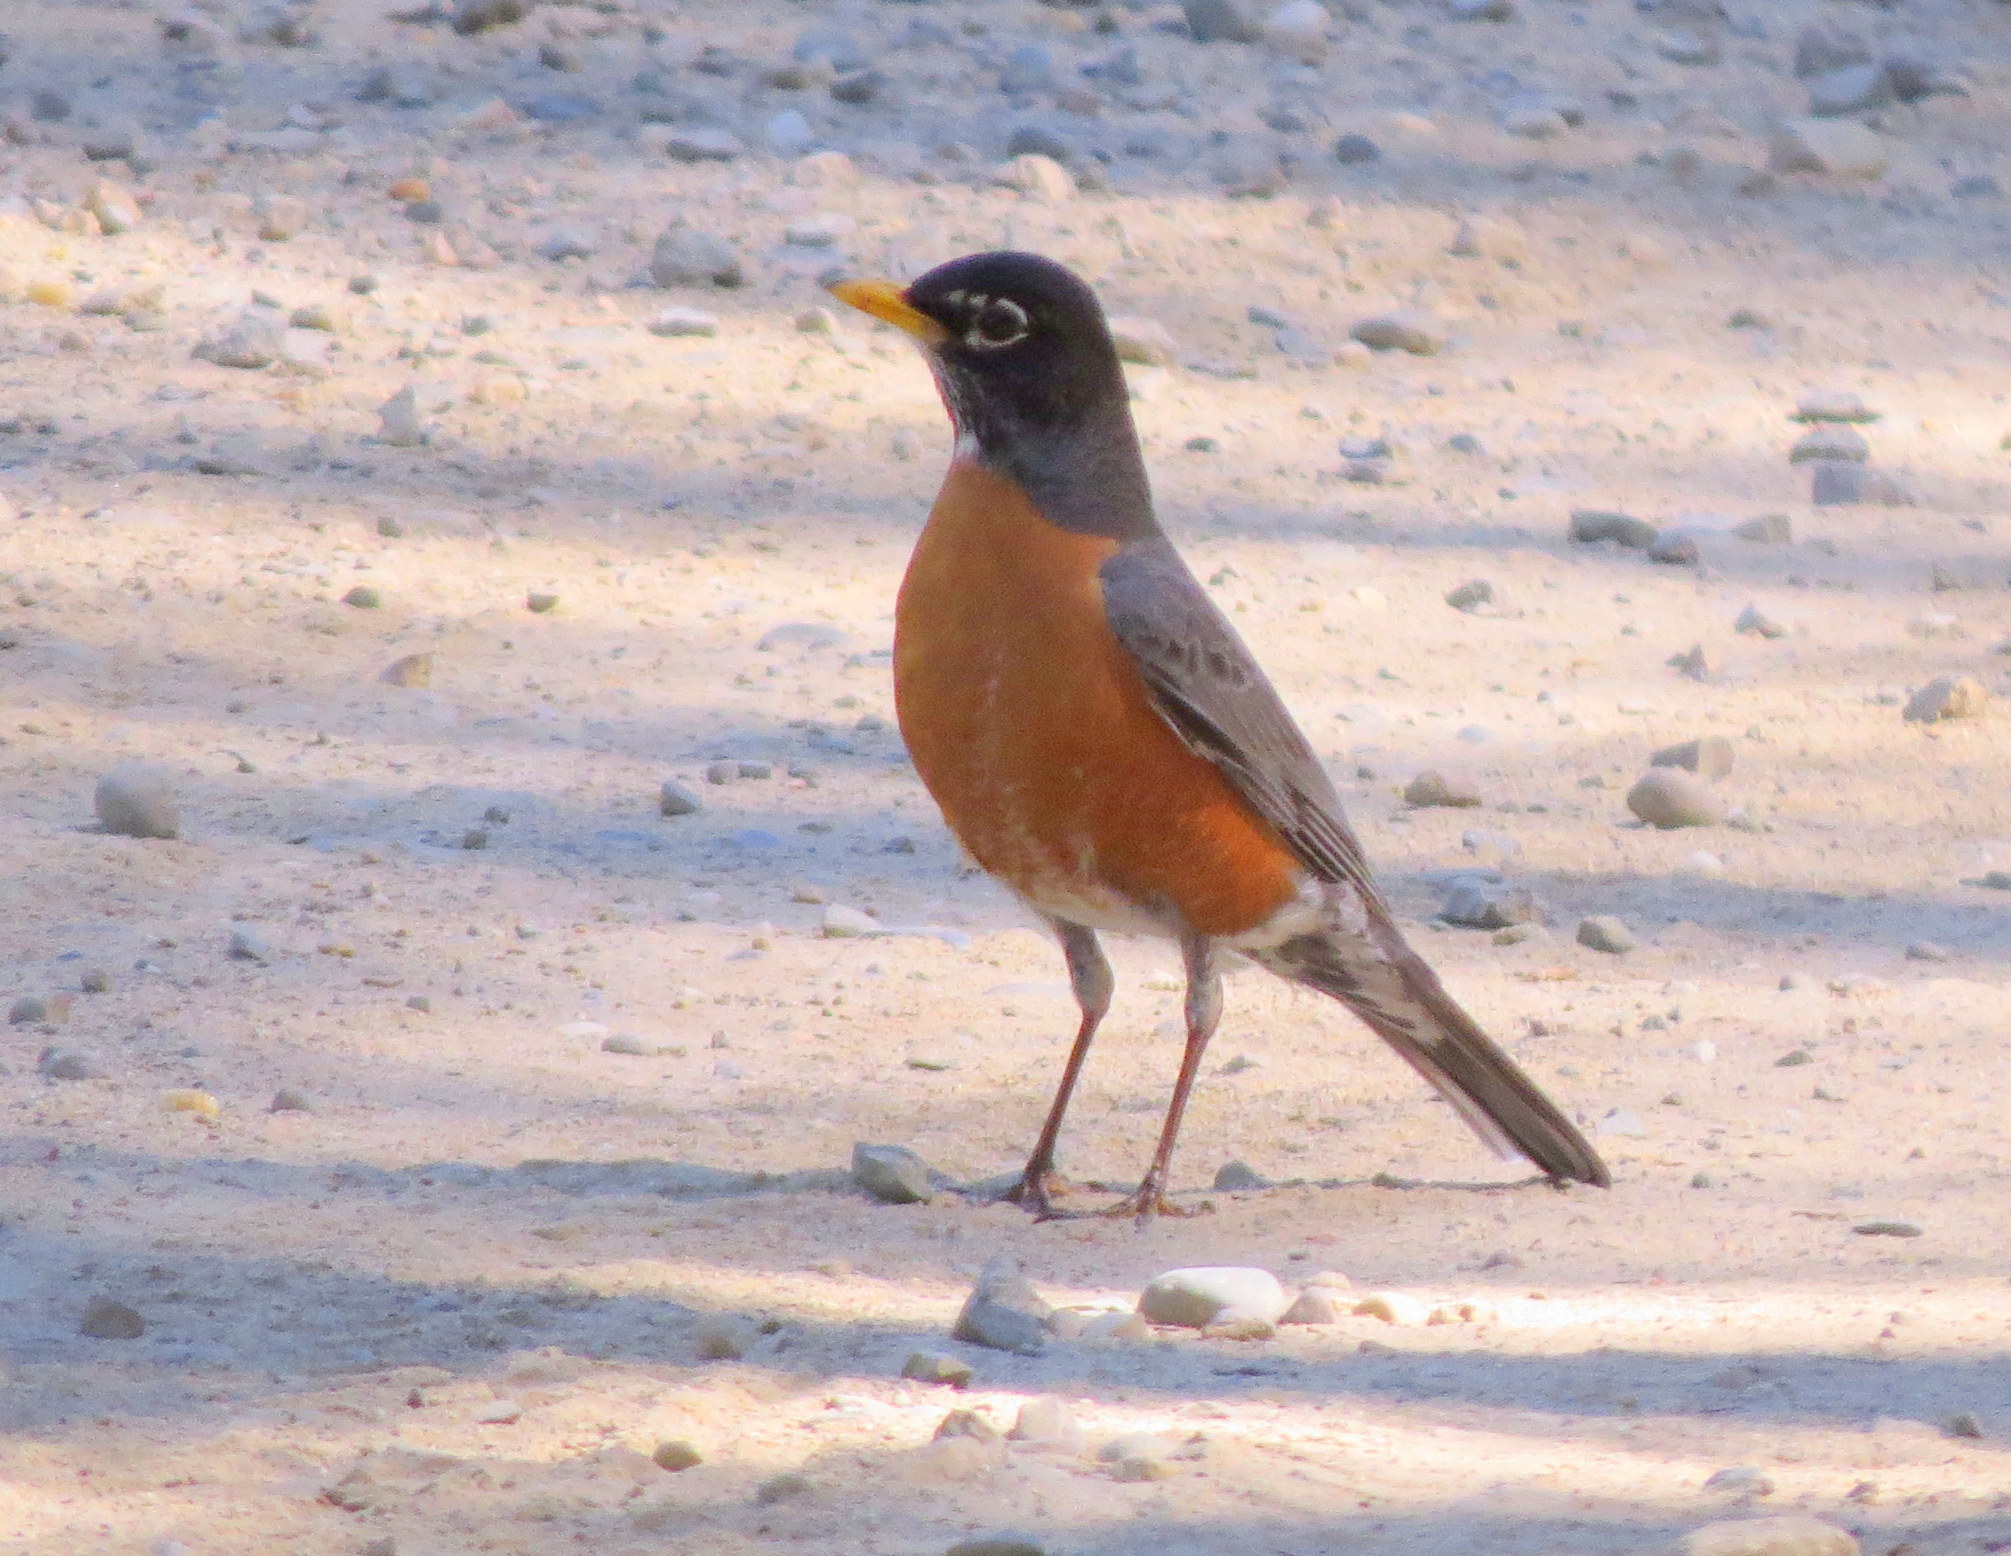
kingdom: Animalia
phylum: Chordata
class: Aves
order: Passeriformes
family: Turdidae
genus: Turdus
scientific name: Turdus migratorius
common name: American robin
